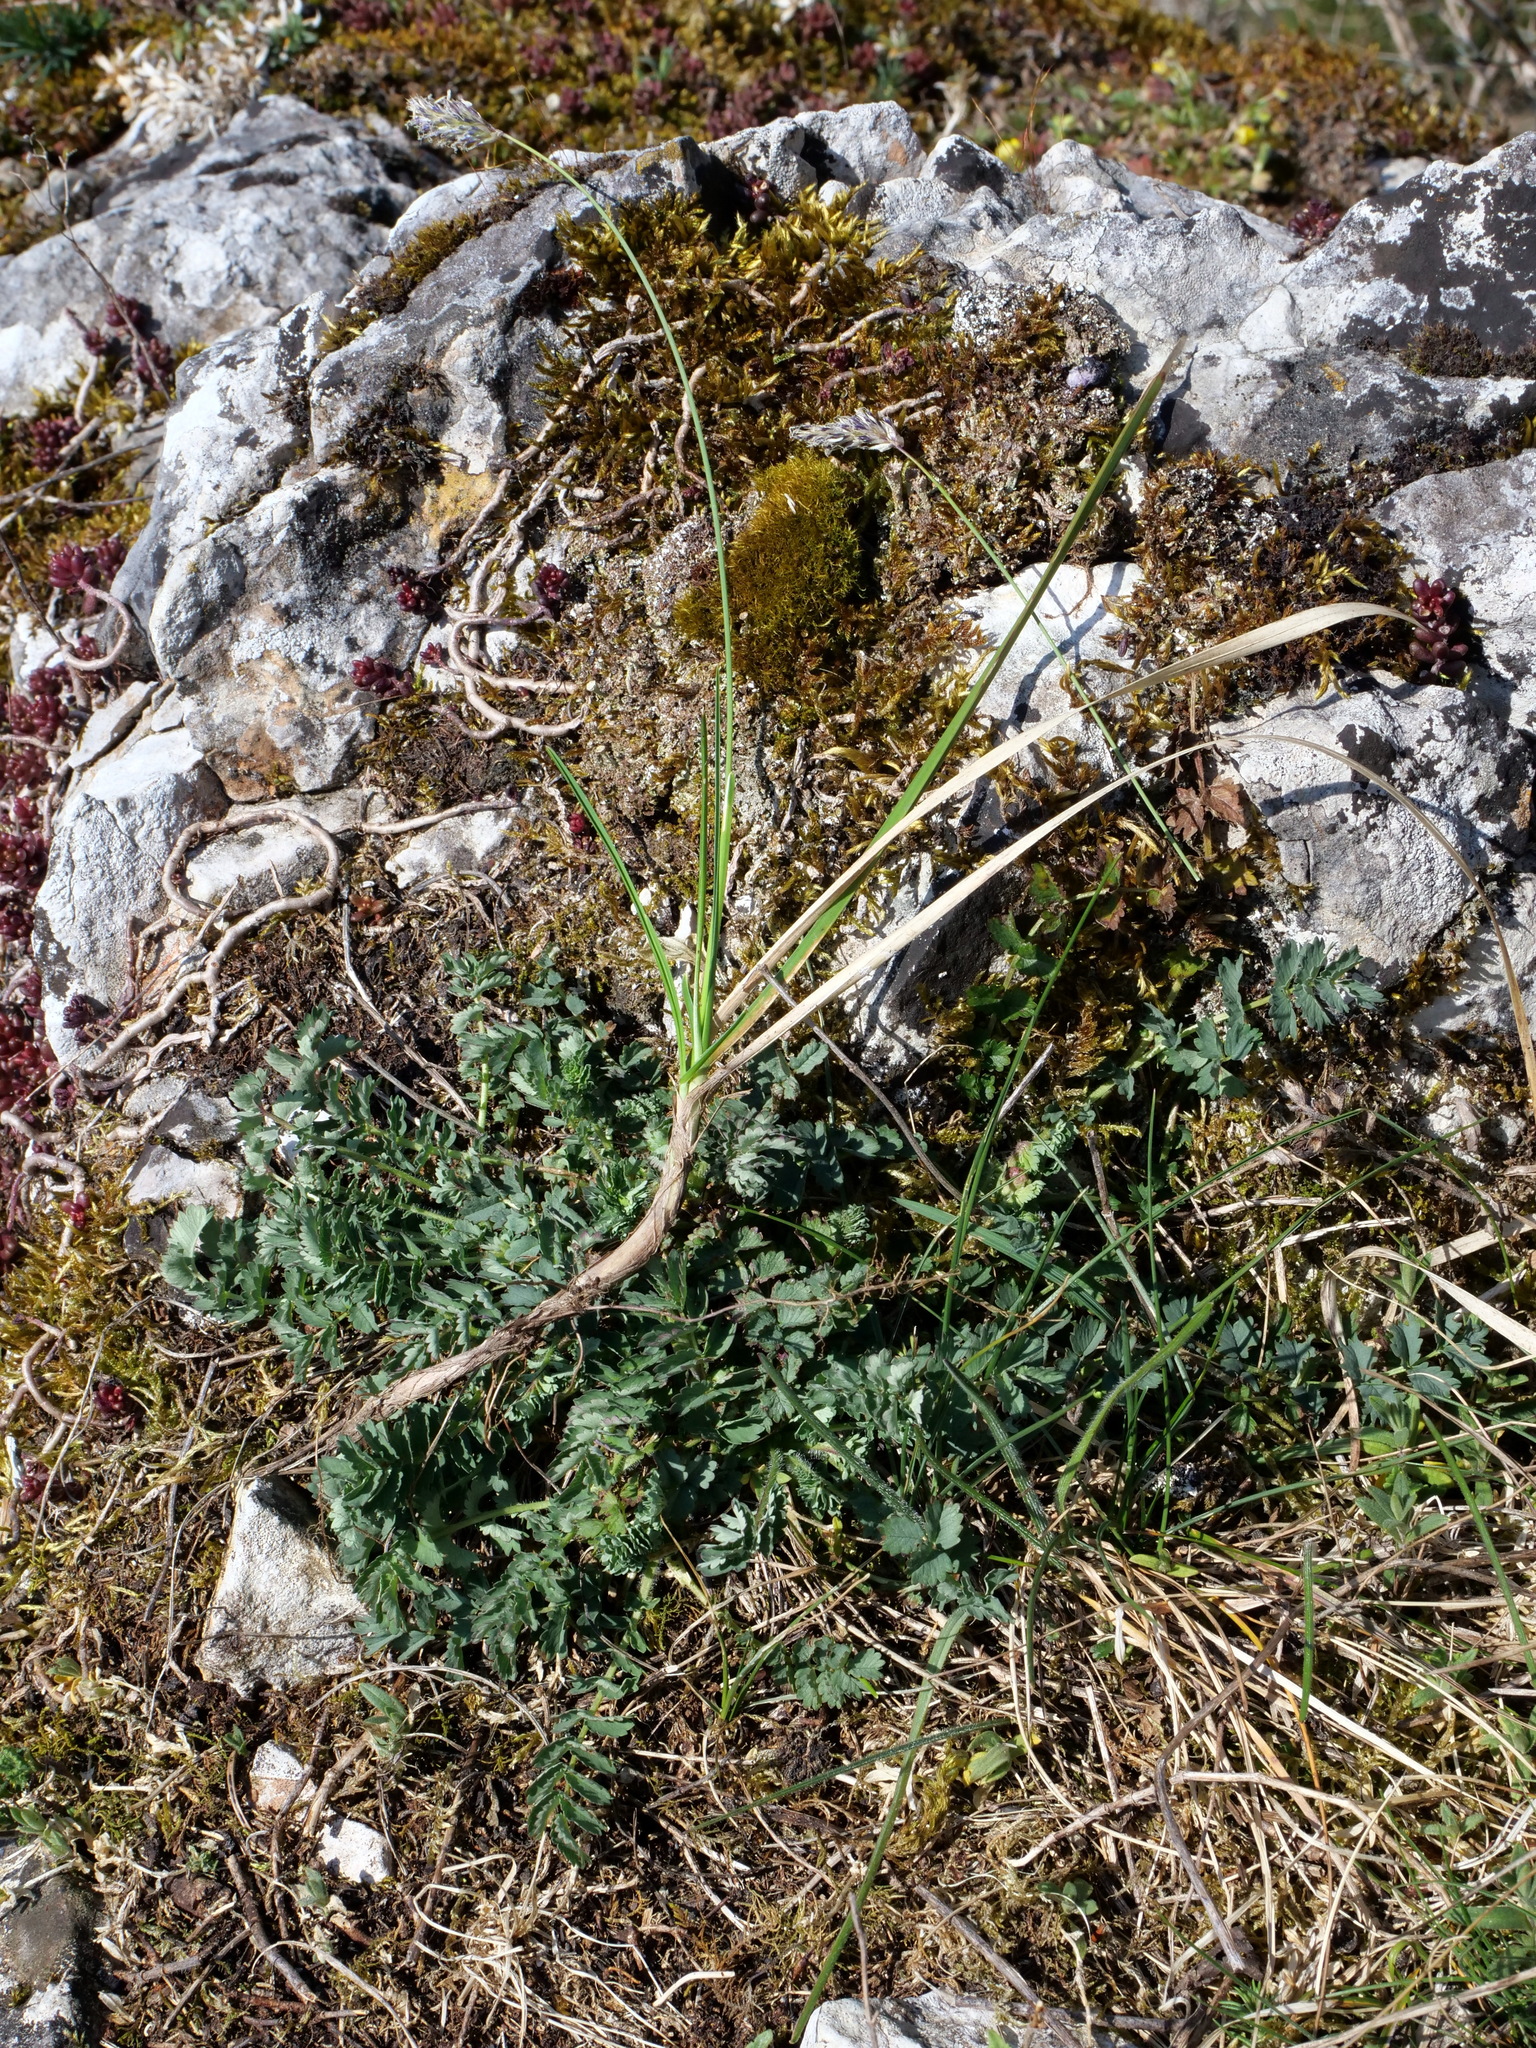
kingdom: Plantae
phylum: Tracheophyta
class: Liliopsida
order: Poales
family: Poaceae
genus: Sesleria
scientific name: Sesleria caerulea
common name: Blue moor-grass
